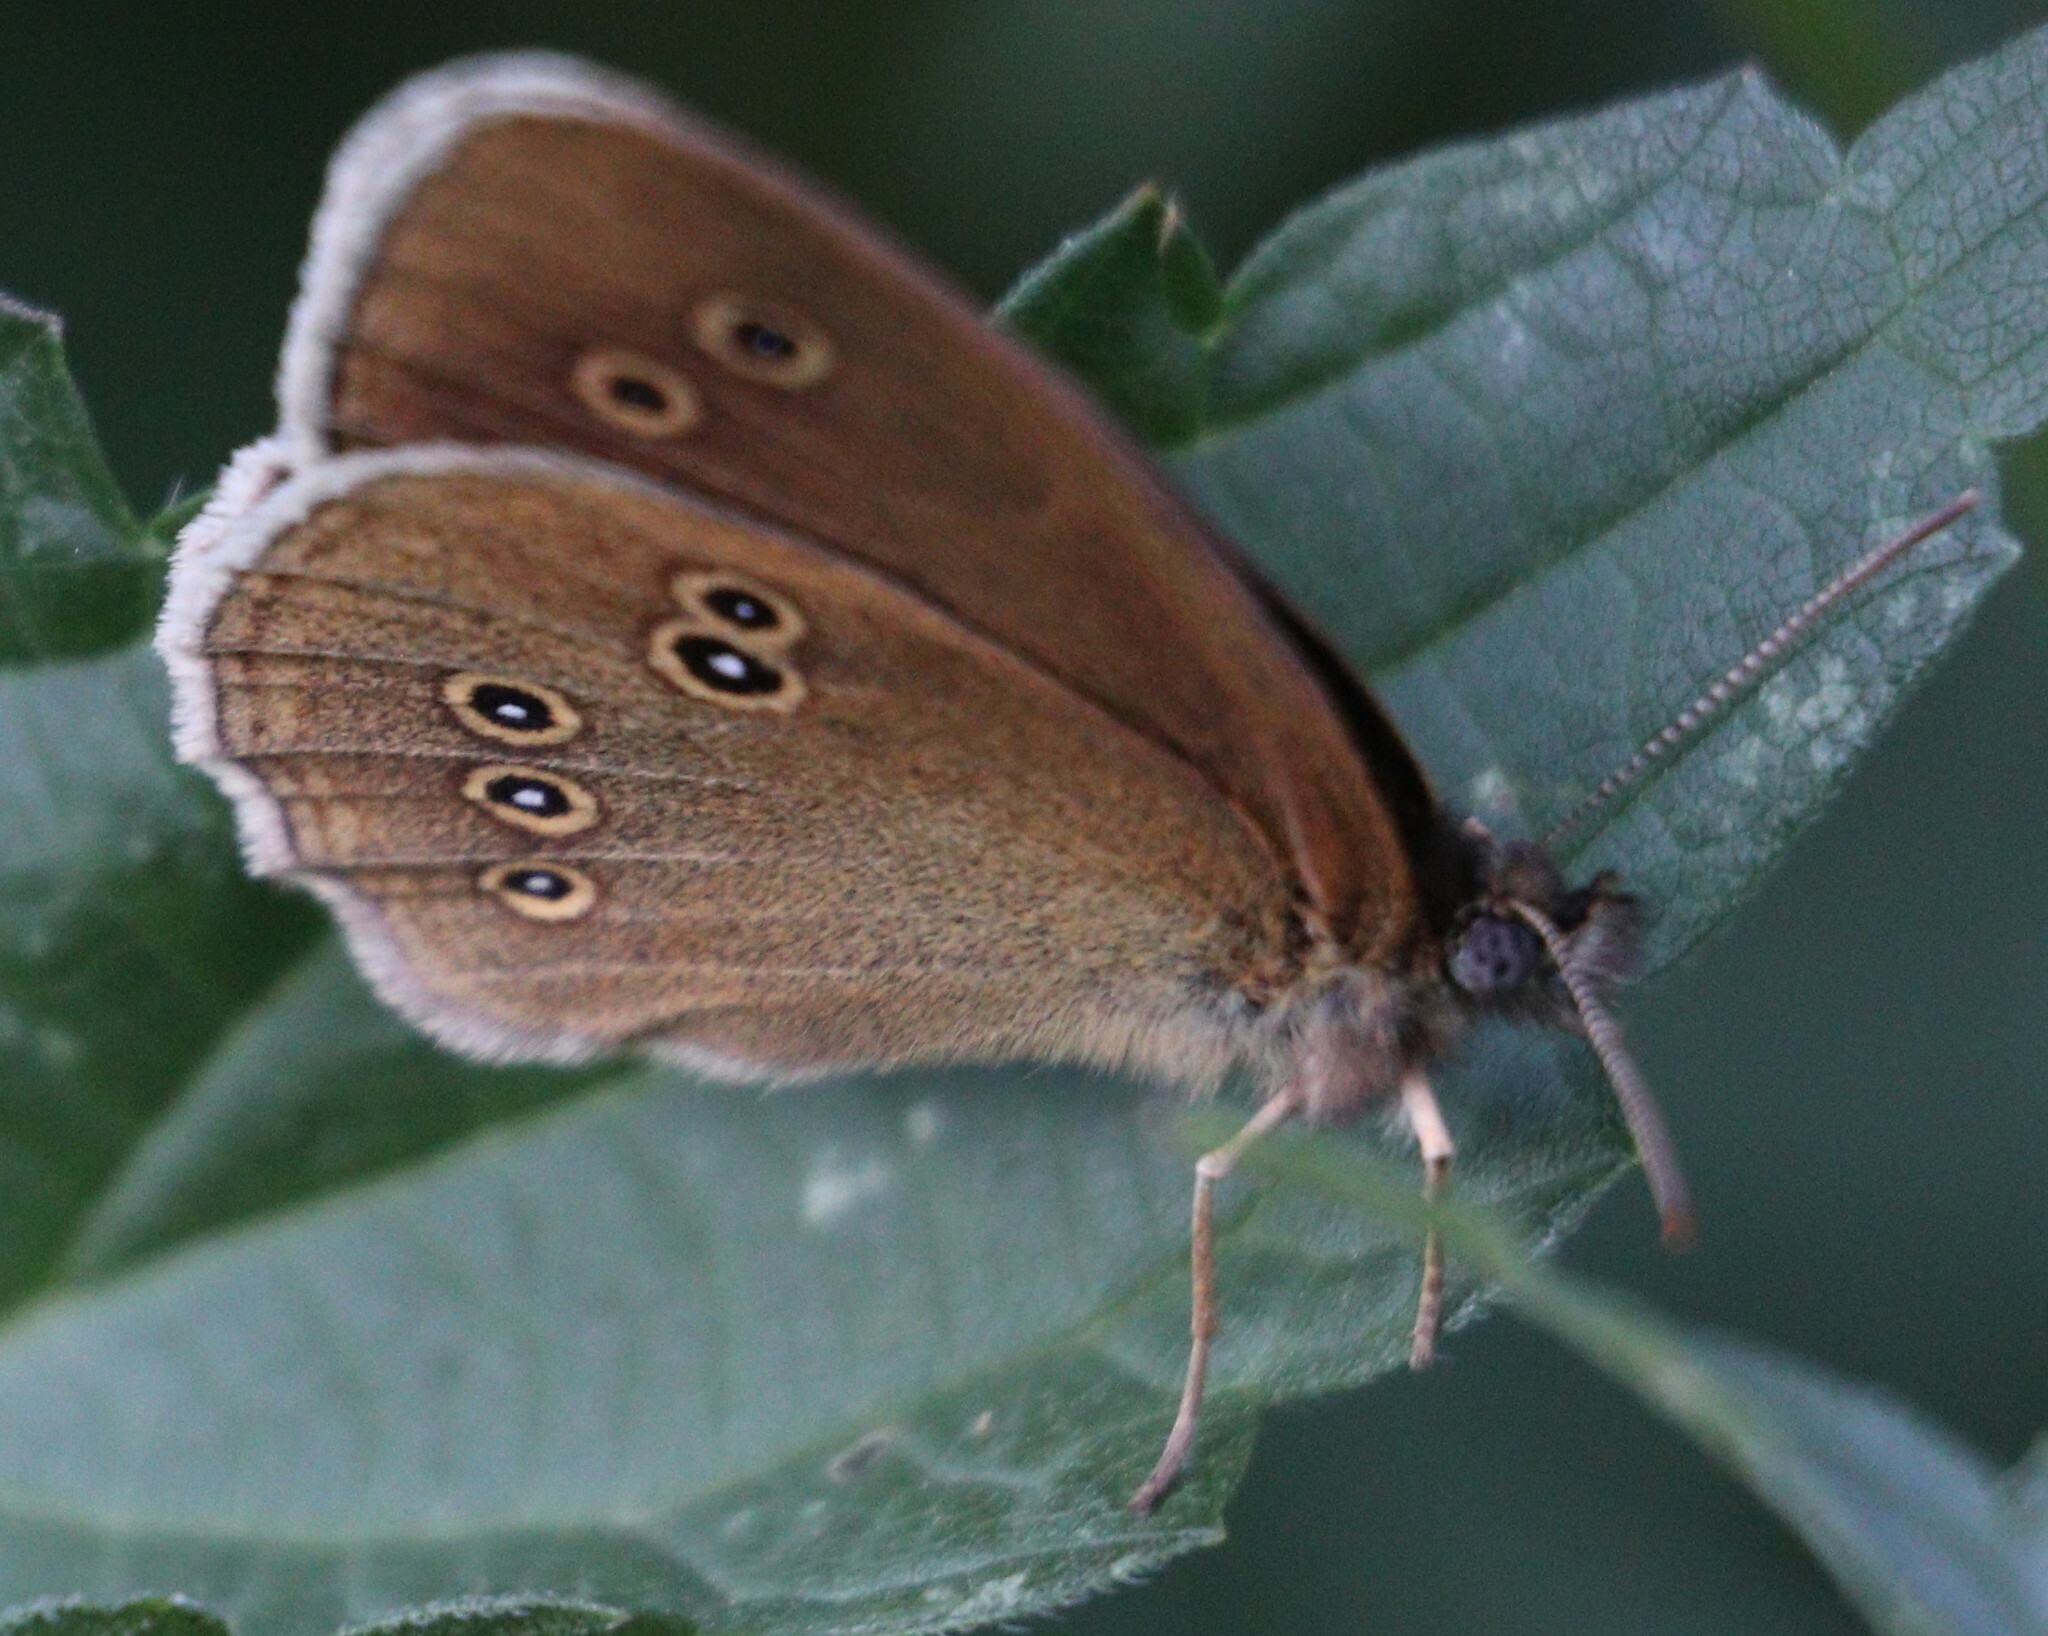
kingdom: Animalia
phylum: Arthropoda
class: Insecta
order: Lepidoptera
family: Nymphalidae
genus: Aphantopus
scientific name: Aphantopus hyperantus
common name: Ringlet
